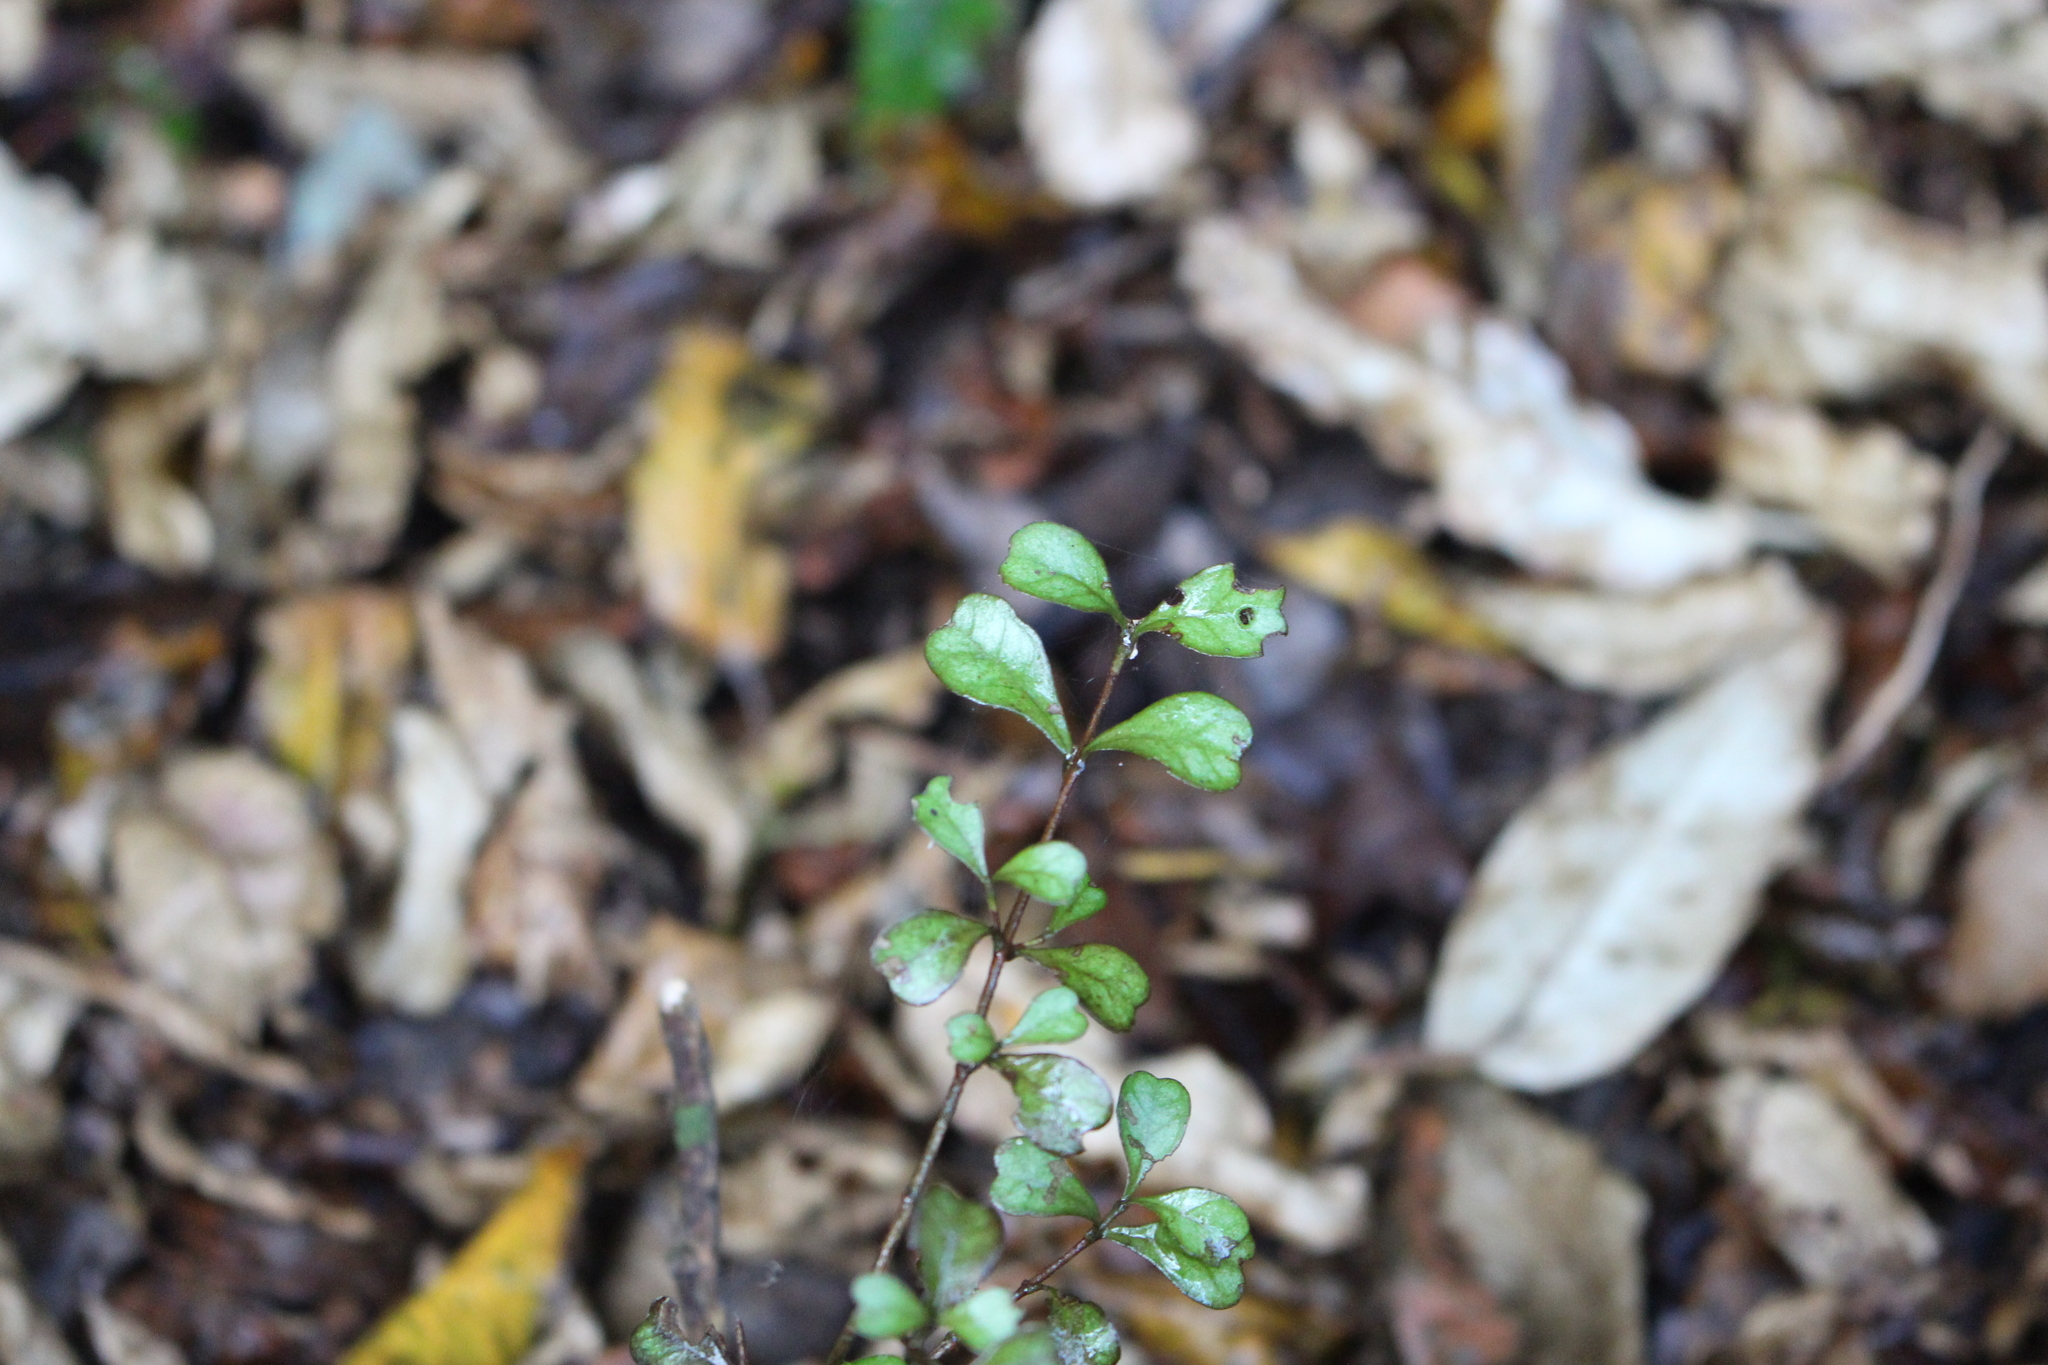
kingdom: Plantae
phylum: Tracheophyta
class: Magnoliopsida
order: Myrtales
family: Myrtaceae
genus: Lophomyrtus
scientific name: Lophomyrtus obcordata
